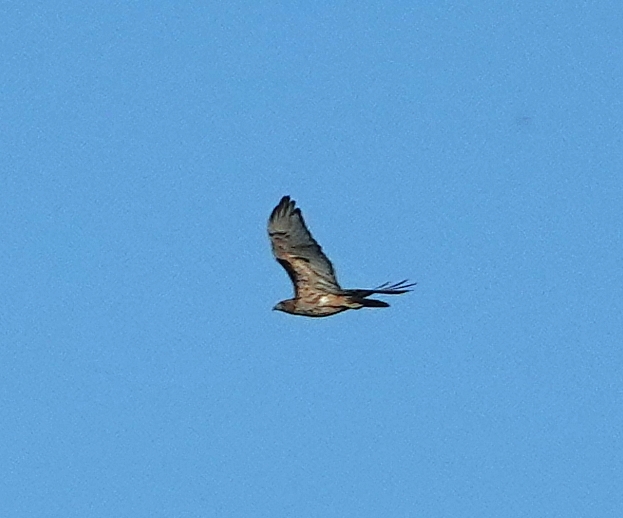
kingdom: Animalia
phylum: Chordata
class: Aves
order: Accipitriformes
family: Accipitridae
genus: Buteo
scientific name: Buteo jamaicensis
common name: Red-tailed hawk
